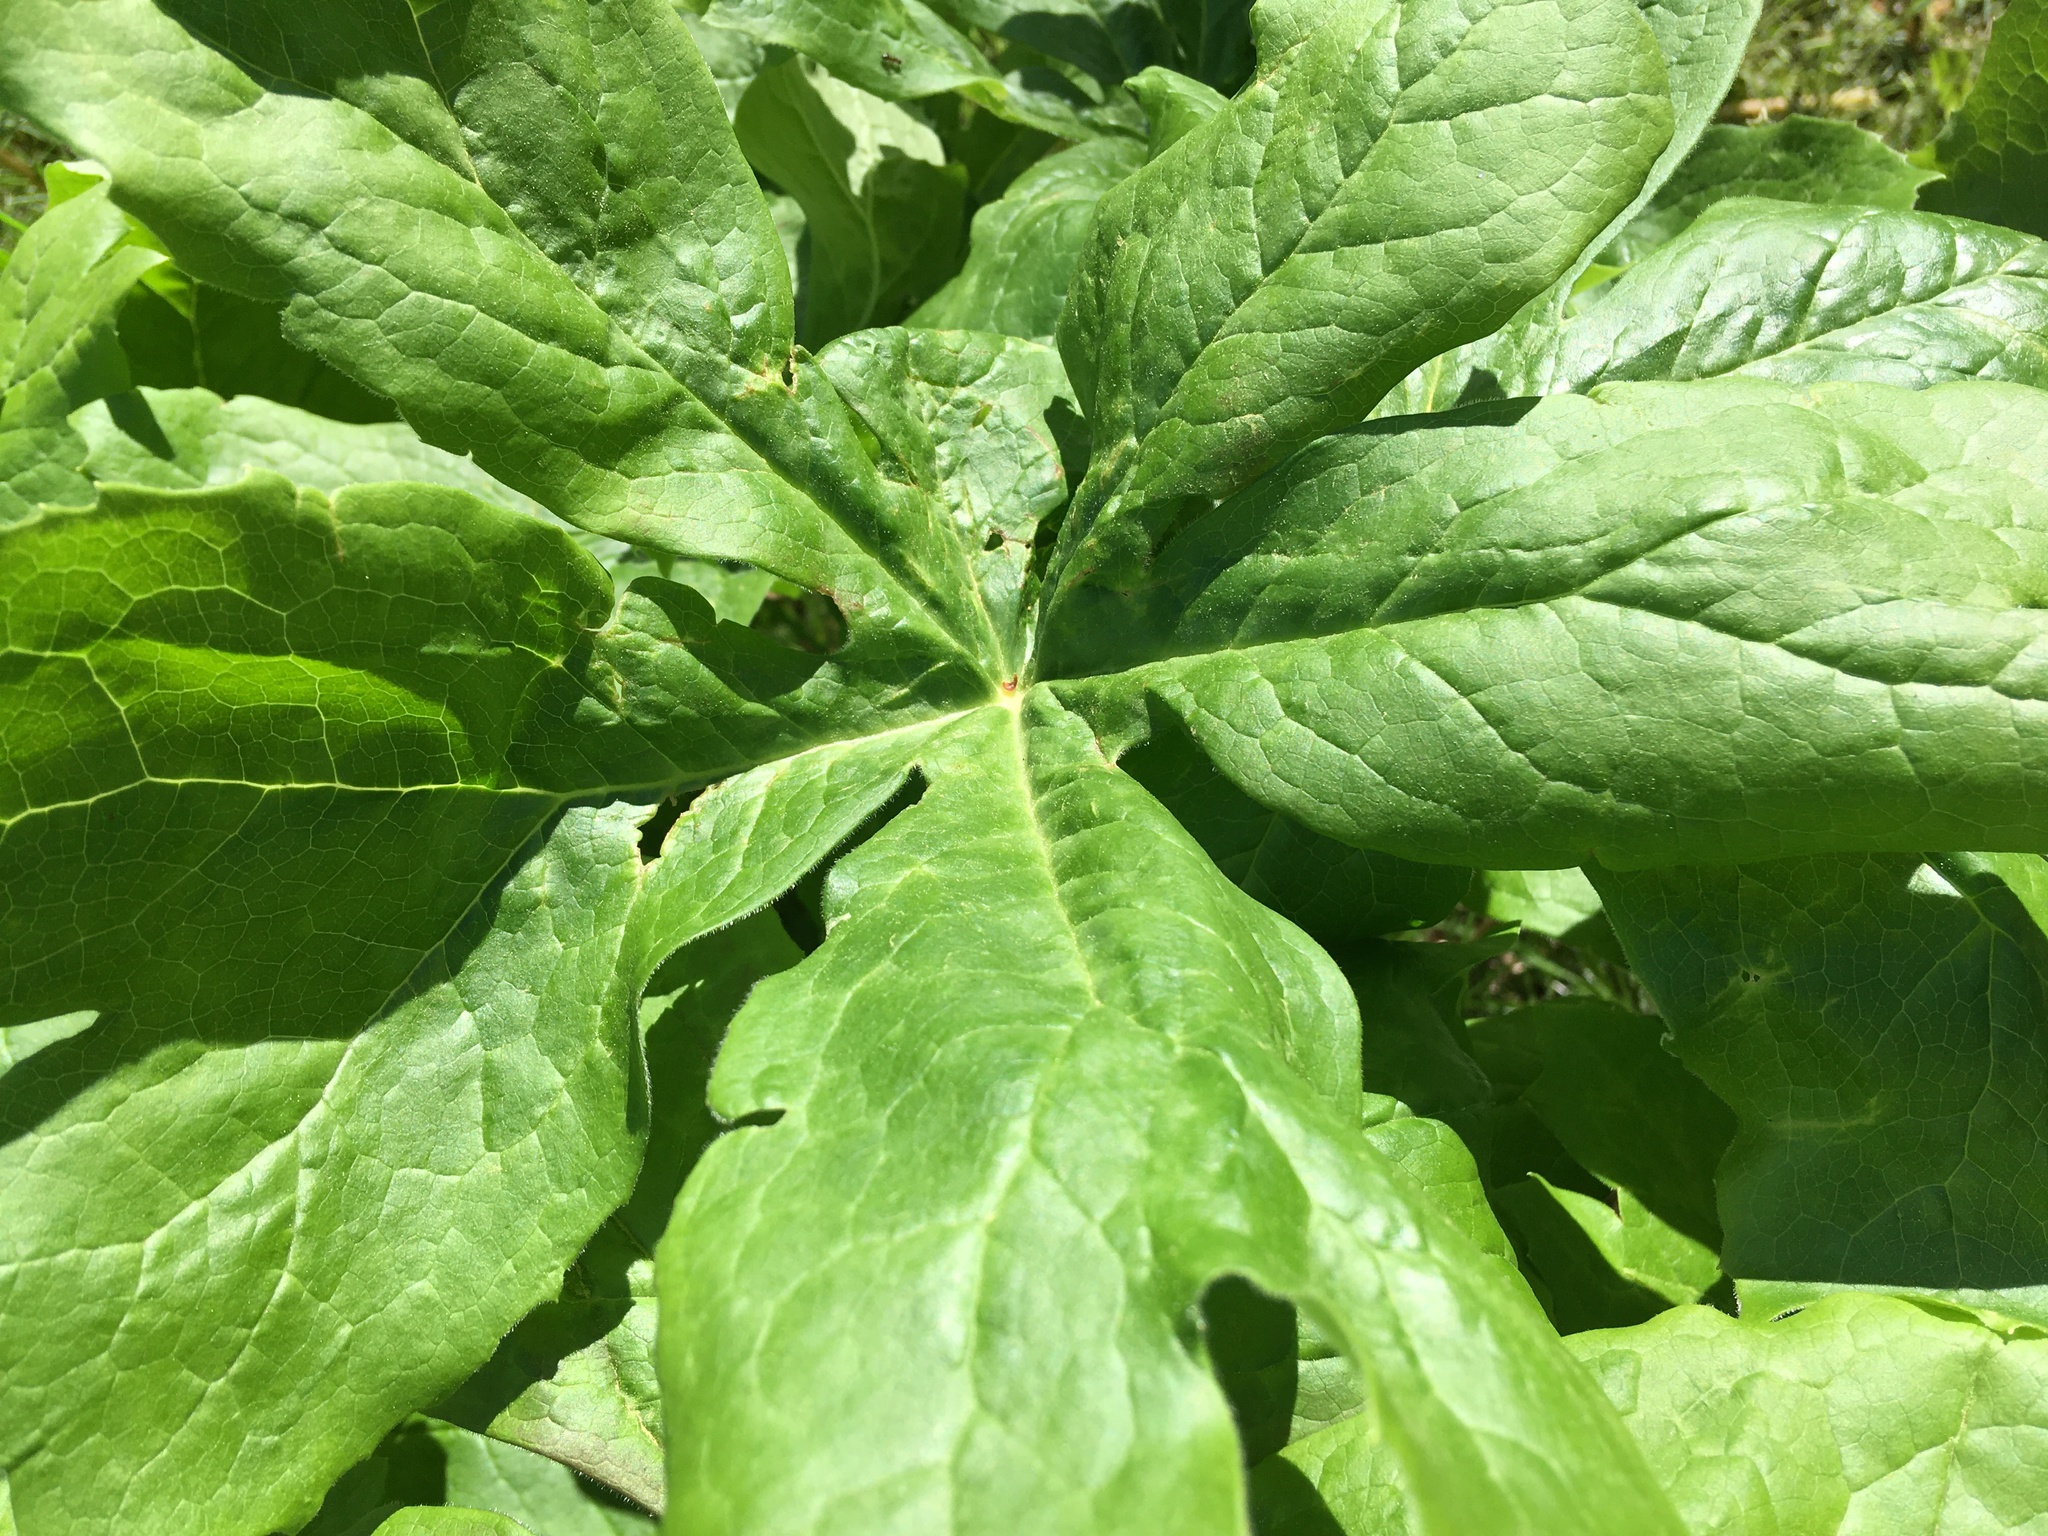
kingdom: Plantae
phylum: Tracheophyta
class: Magnoliopsida
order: Ranunculales
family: Berberidaceae
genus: Podophyllum
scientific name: Podophyllum peltatum
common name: Wild mandrake
